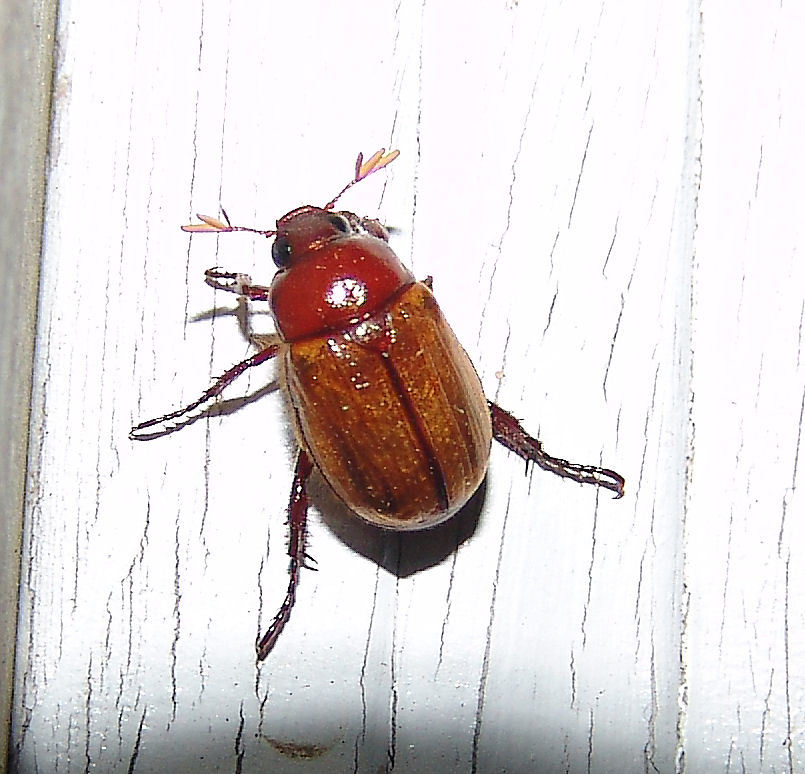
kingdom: Animalia
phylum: Arthropoda
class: Insecta
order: Coleoptera
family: Scarabaeidae
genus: Paranomala
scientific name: Paranomala flavipennis
